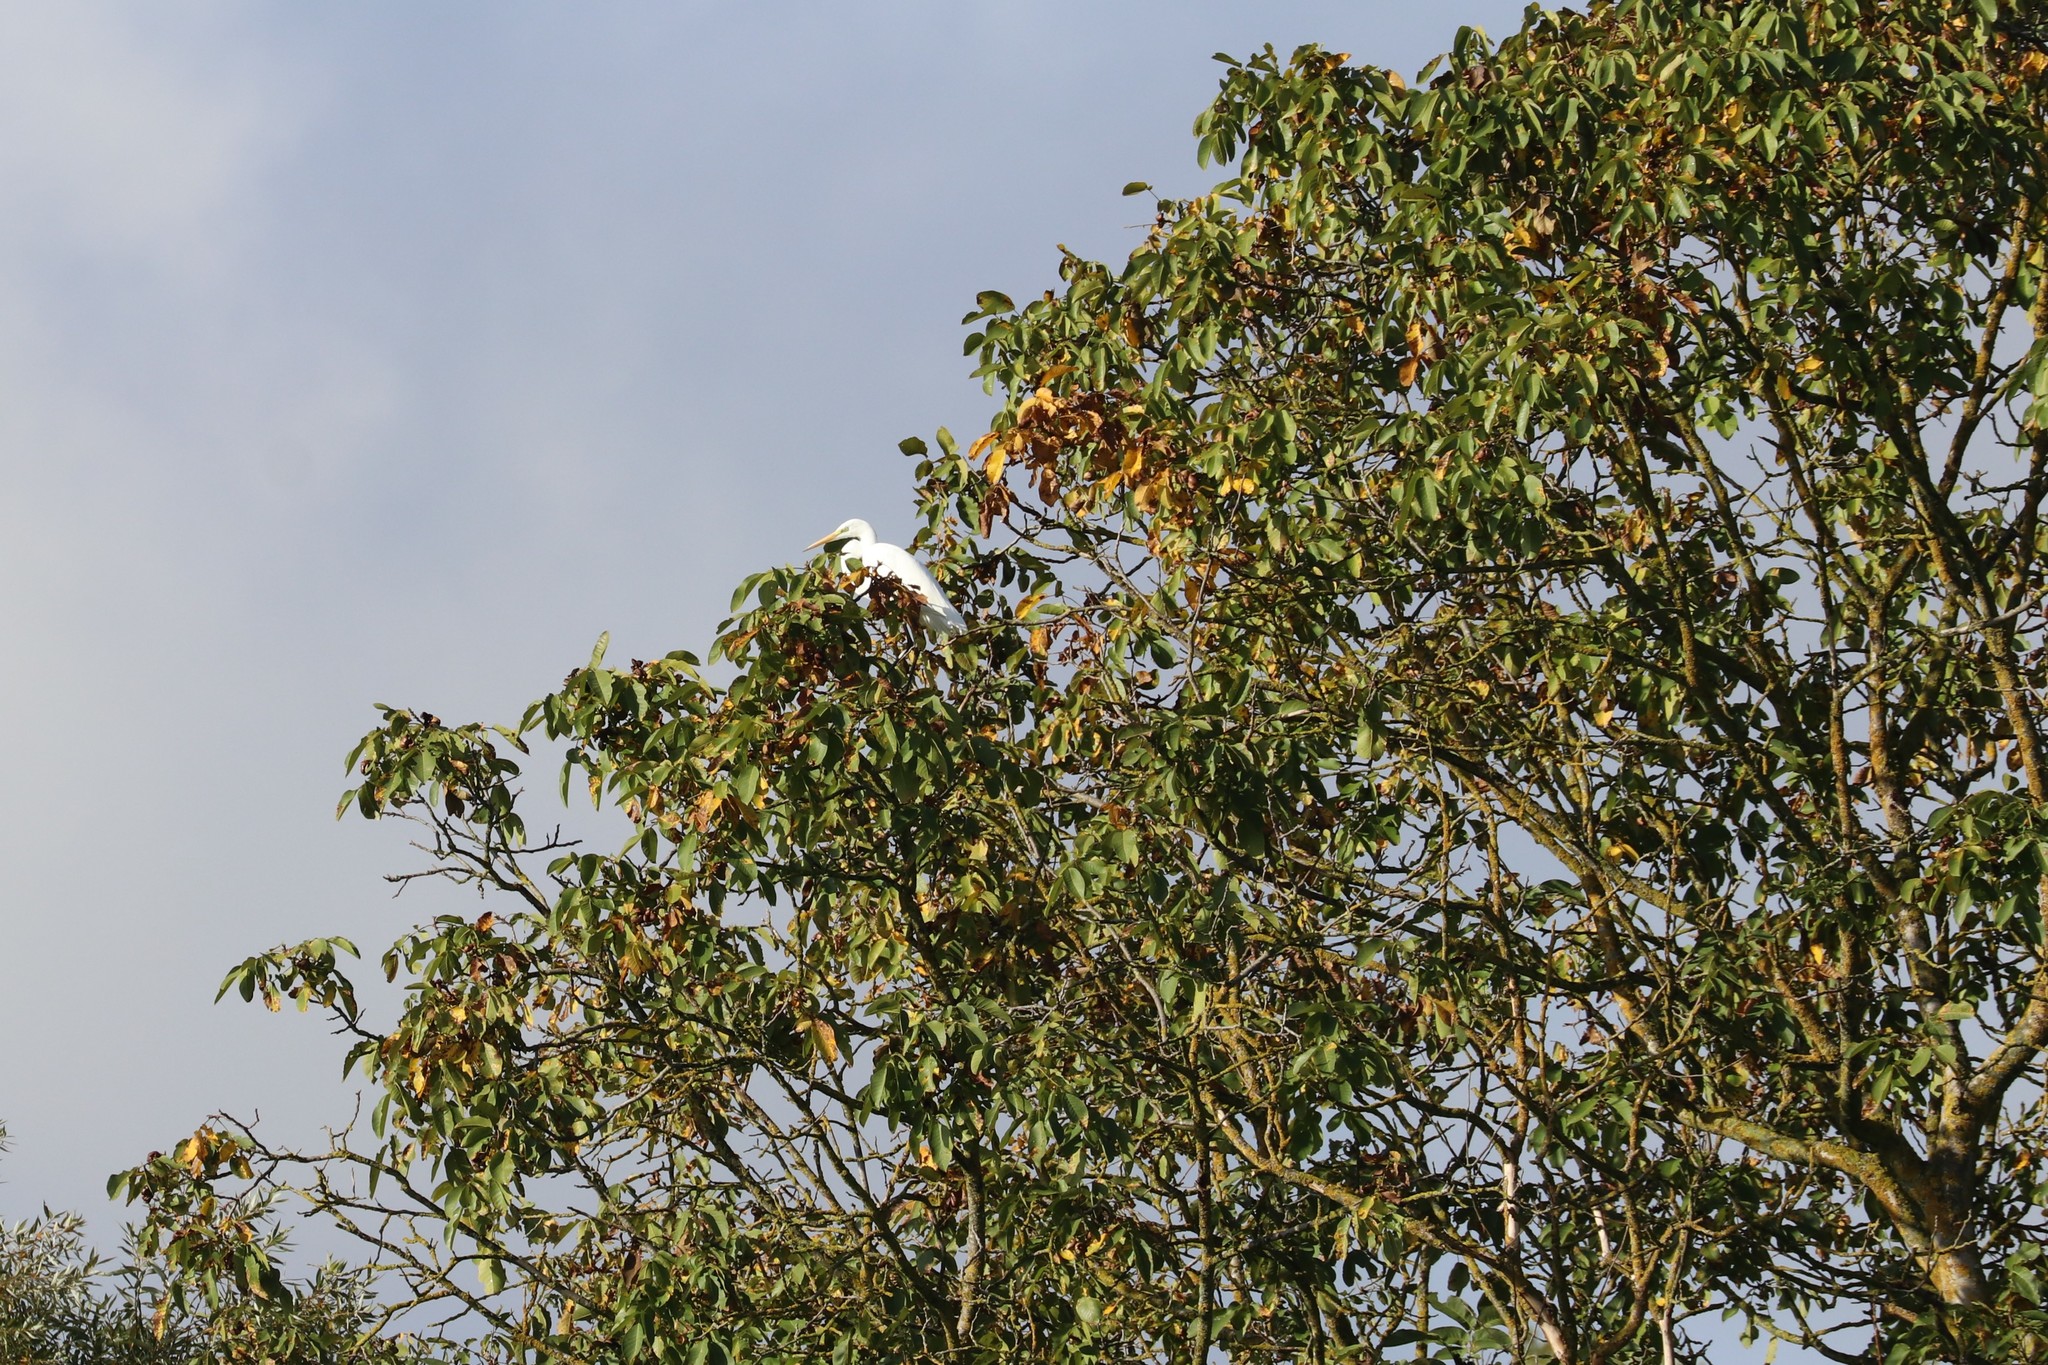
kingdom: Animalia
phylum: Chordata
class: Aves
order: Pelecaniformes
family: Ardeidae
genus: Ardea
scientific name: Ardea alba
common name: Great egret
